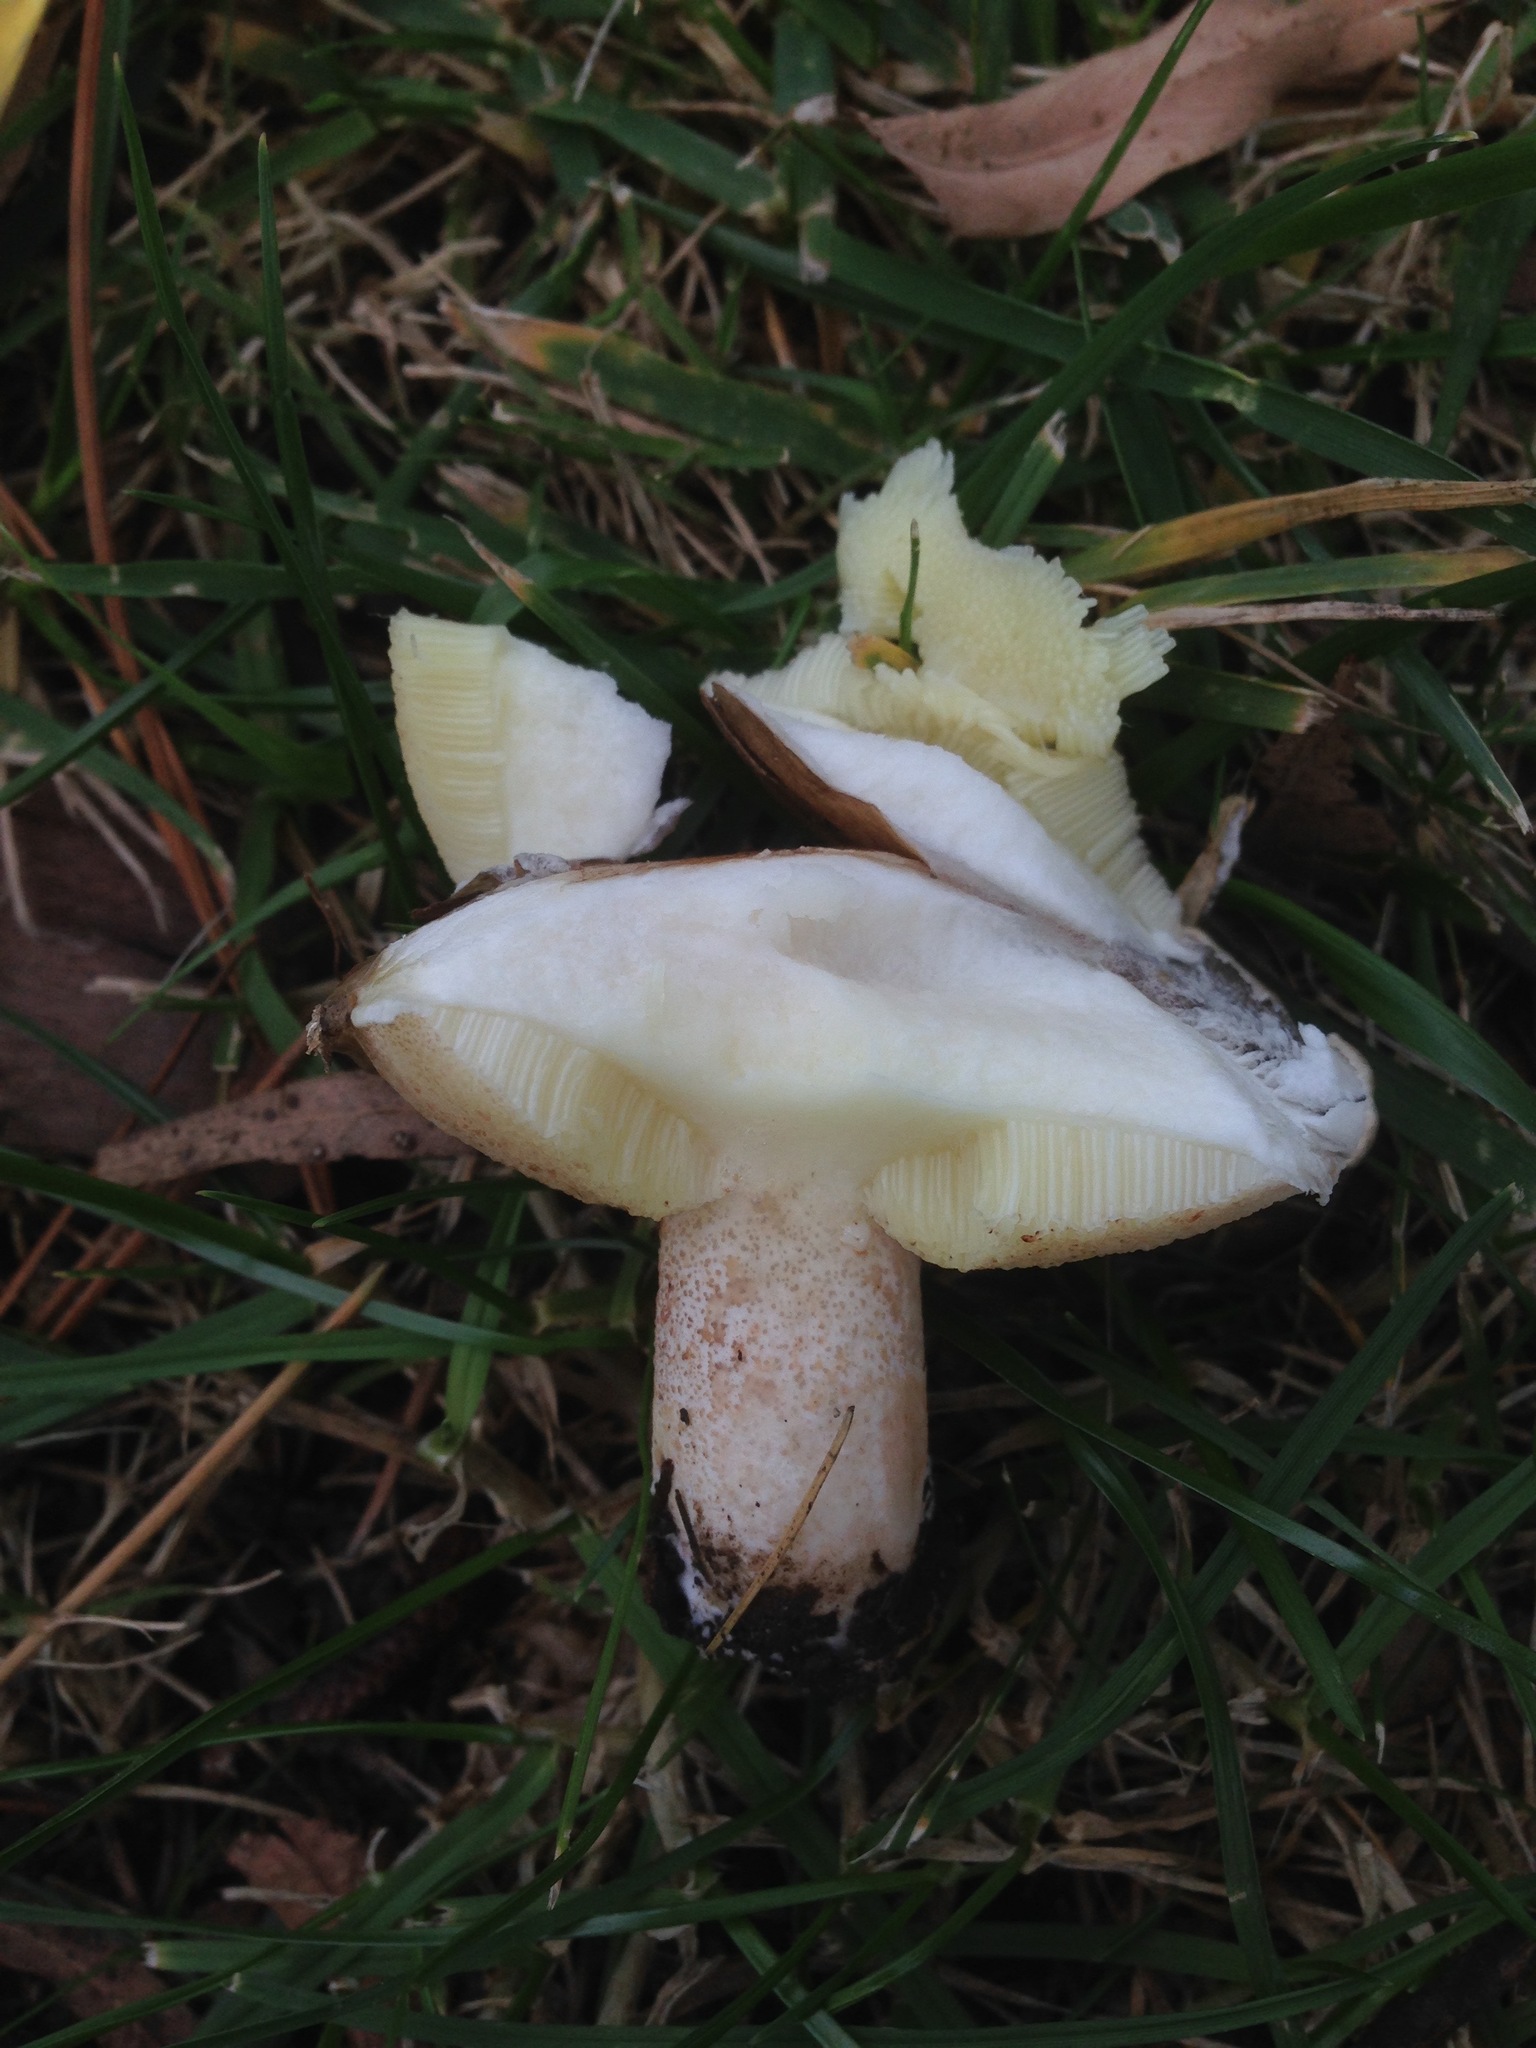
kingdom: Fungi
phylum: Basidiomycota
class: Agaricomycetes
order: Boletales
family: Suillaceae
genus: Suillus
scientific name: Suillus pungens
